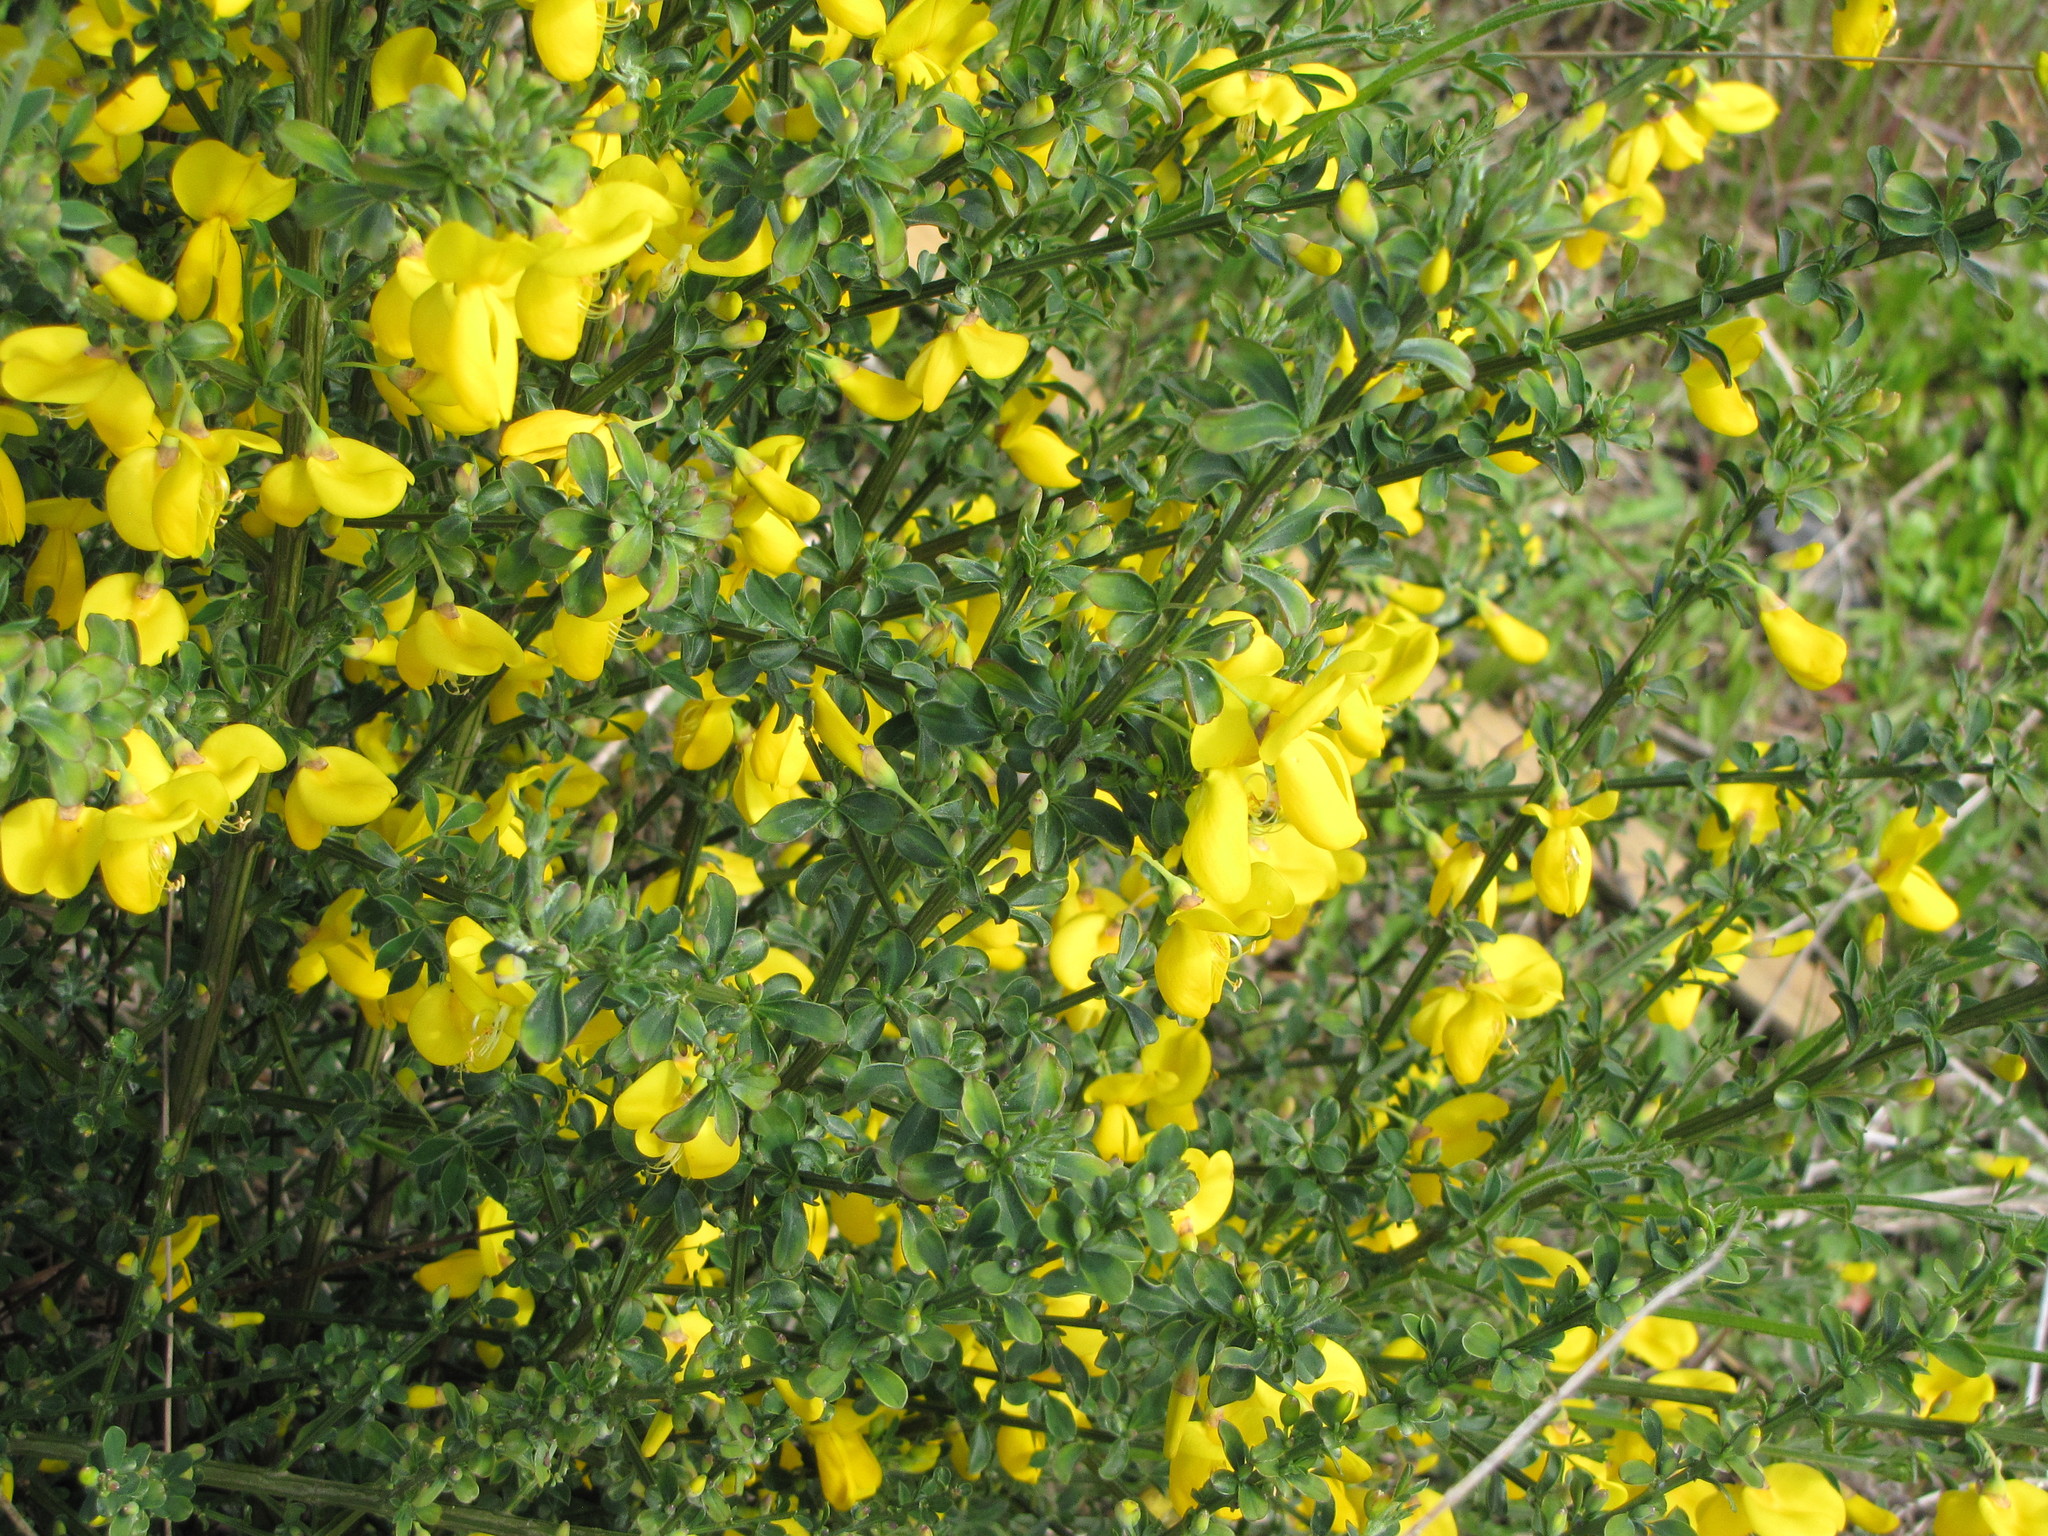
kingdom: Plantae
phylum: Tracheophyta
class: Magnoliopsida
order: Fabales
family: Fabaceae
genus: Cytisus
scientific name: Cytisus scoparius
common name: Scotch broom
